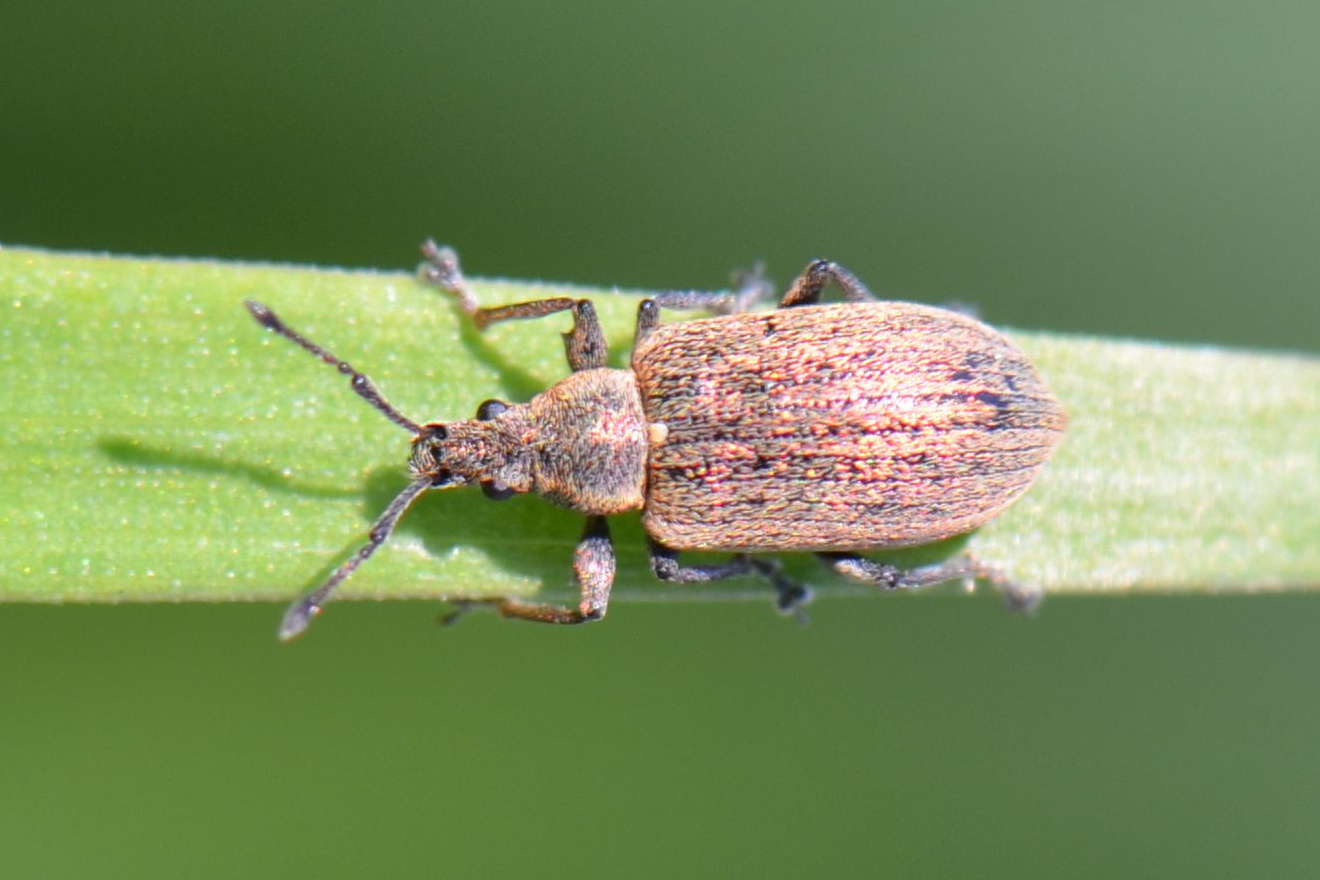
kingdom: Animalia
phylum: Arthropoda
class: Insecta
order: Coleoptera
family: Curculionidae
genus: Phyllobius
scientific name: Phyllobius pyri
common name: Common leaf weevil
